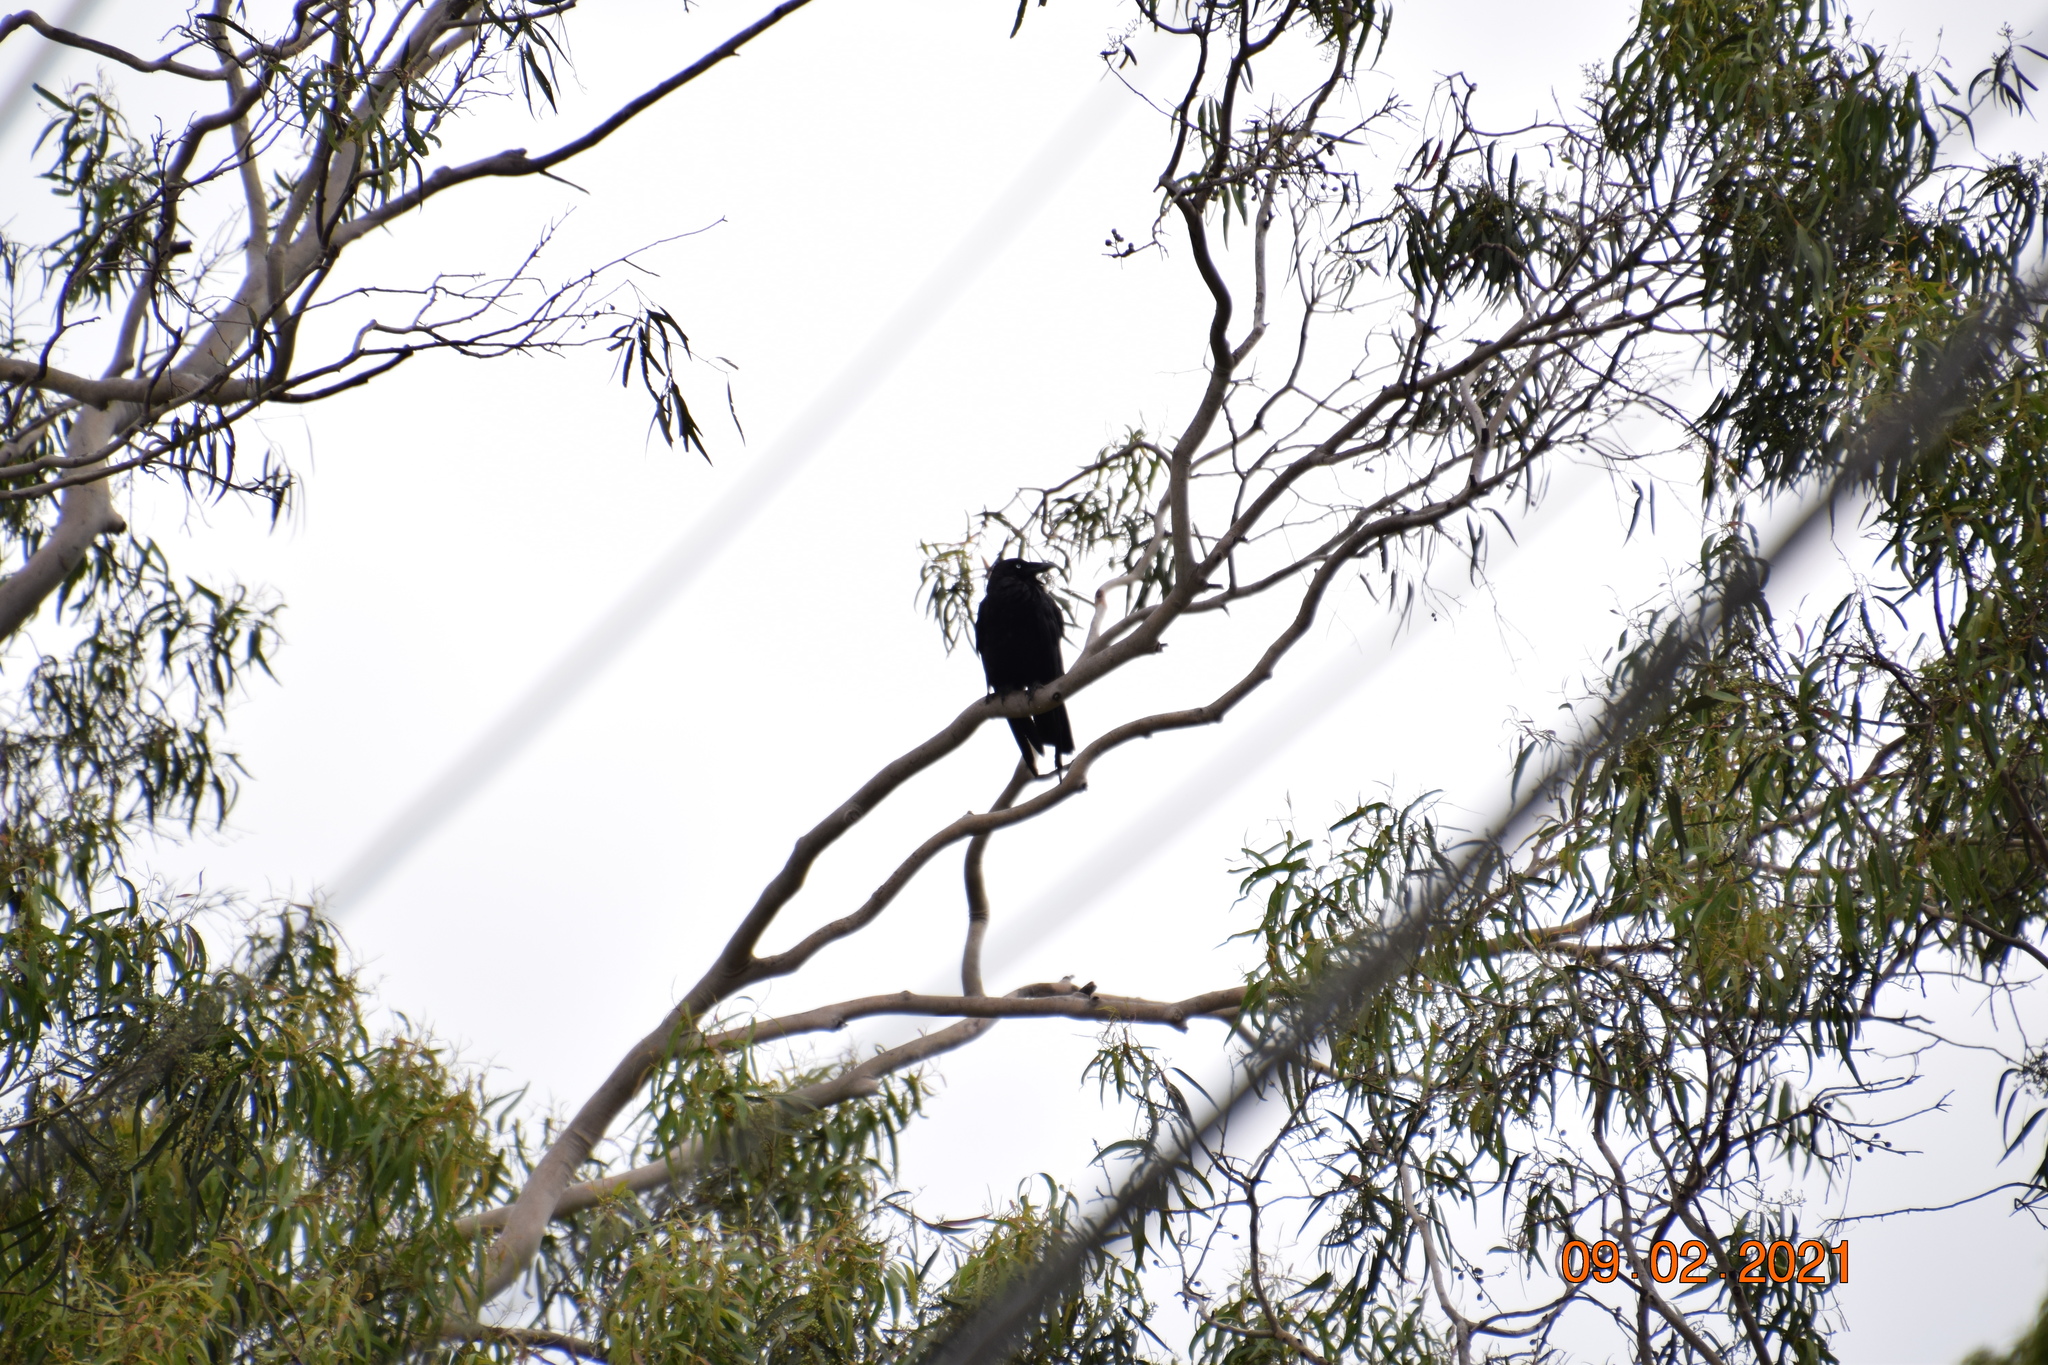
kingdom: Animalia
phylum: Chordata
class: Aves
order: Passeriformes
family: Corvidae
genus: Corvus
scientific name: Corvus coronoides
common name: Australian raven
